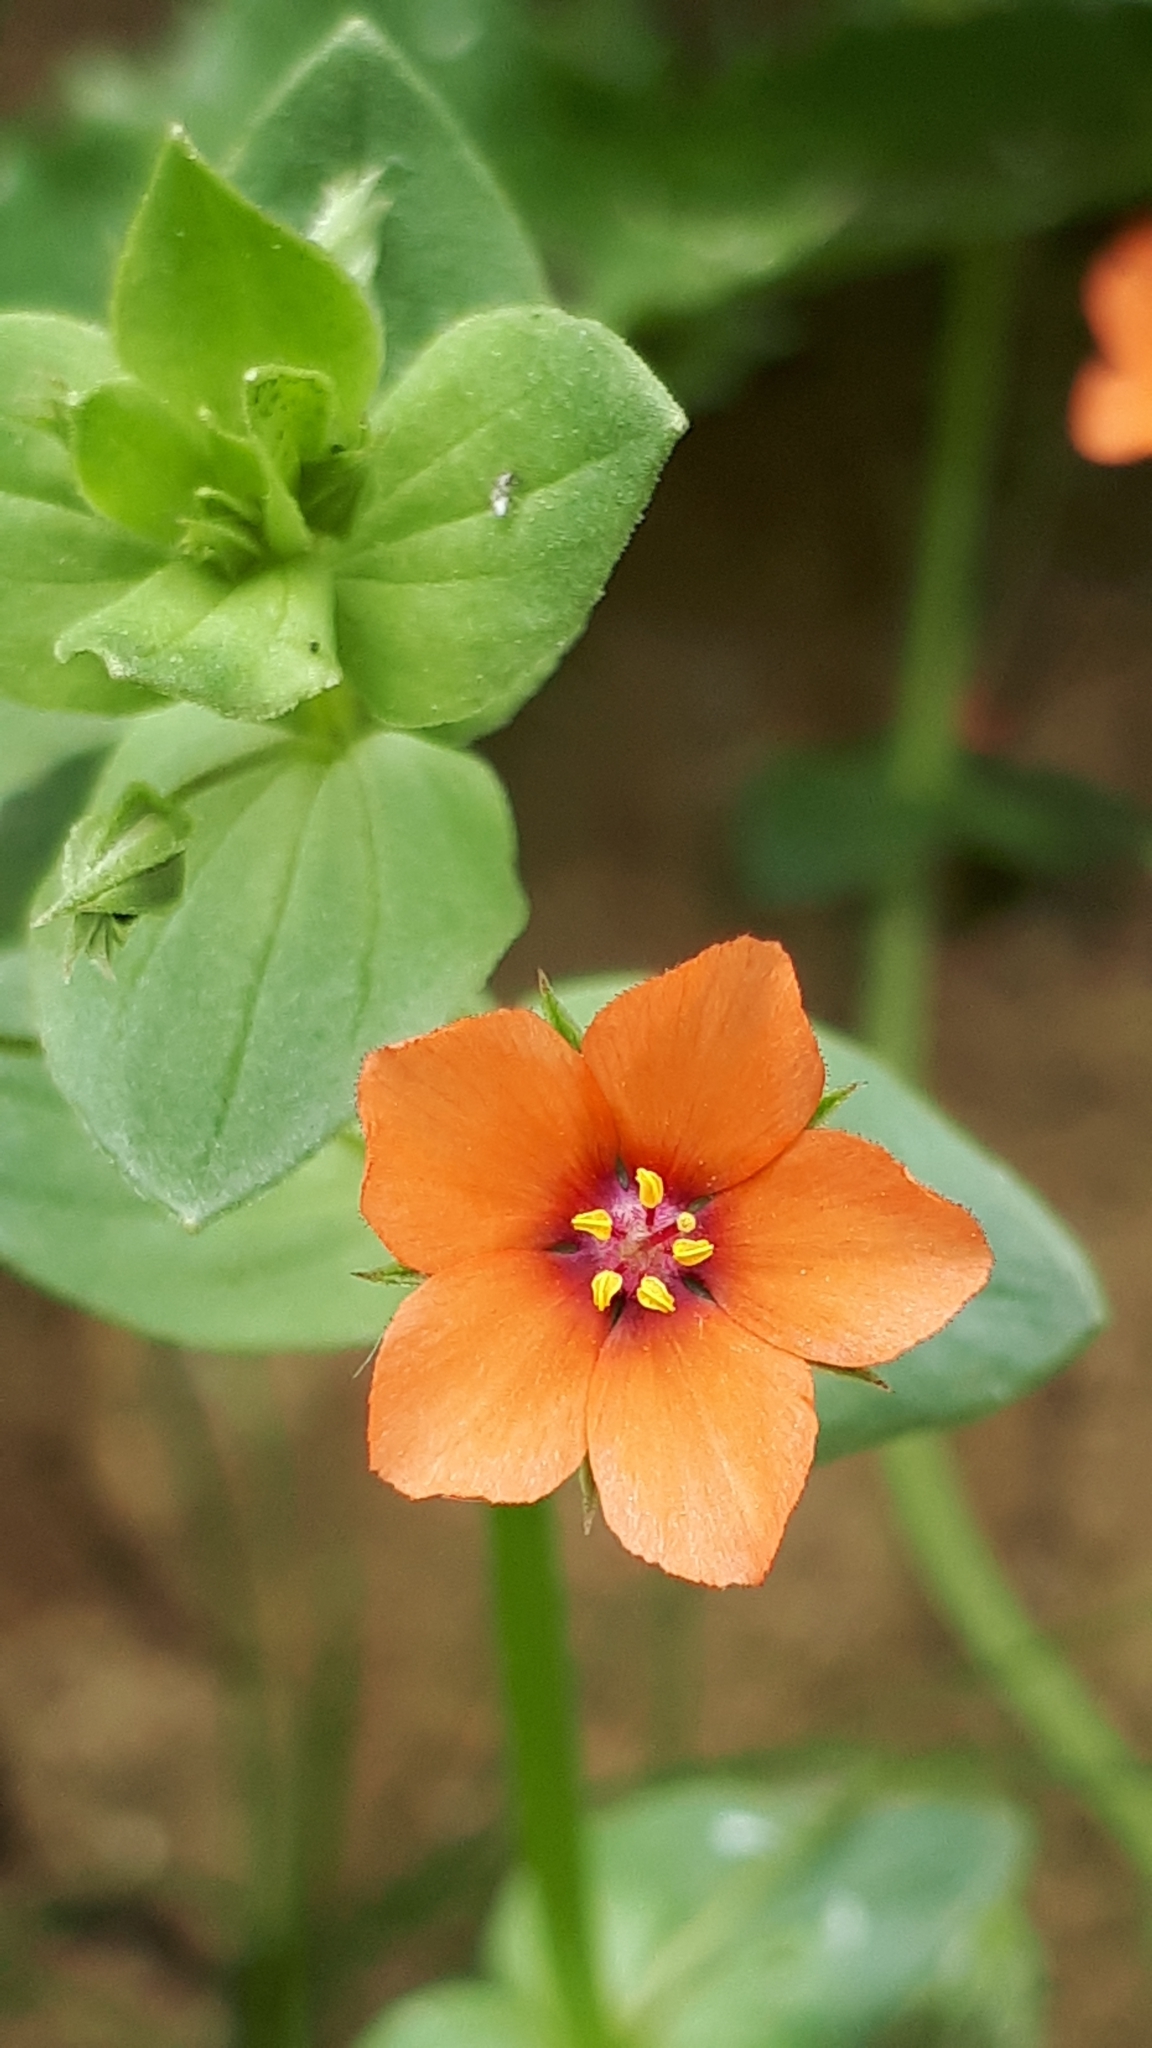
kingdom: Plantae
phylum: Tracheophyta
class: Magnoliopsida
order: Ericales
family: Primulaceae
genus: Lysimachia
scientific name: Lysimachia arvensis
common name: Scarlet pimpernel
